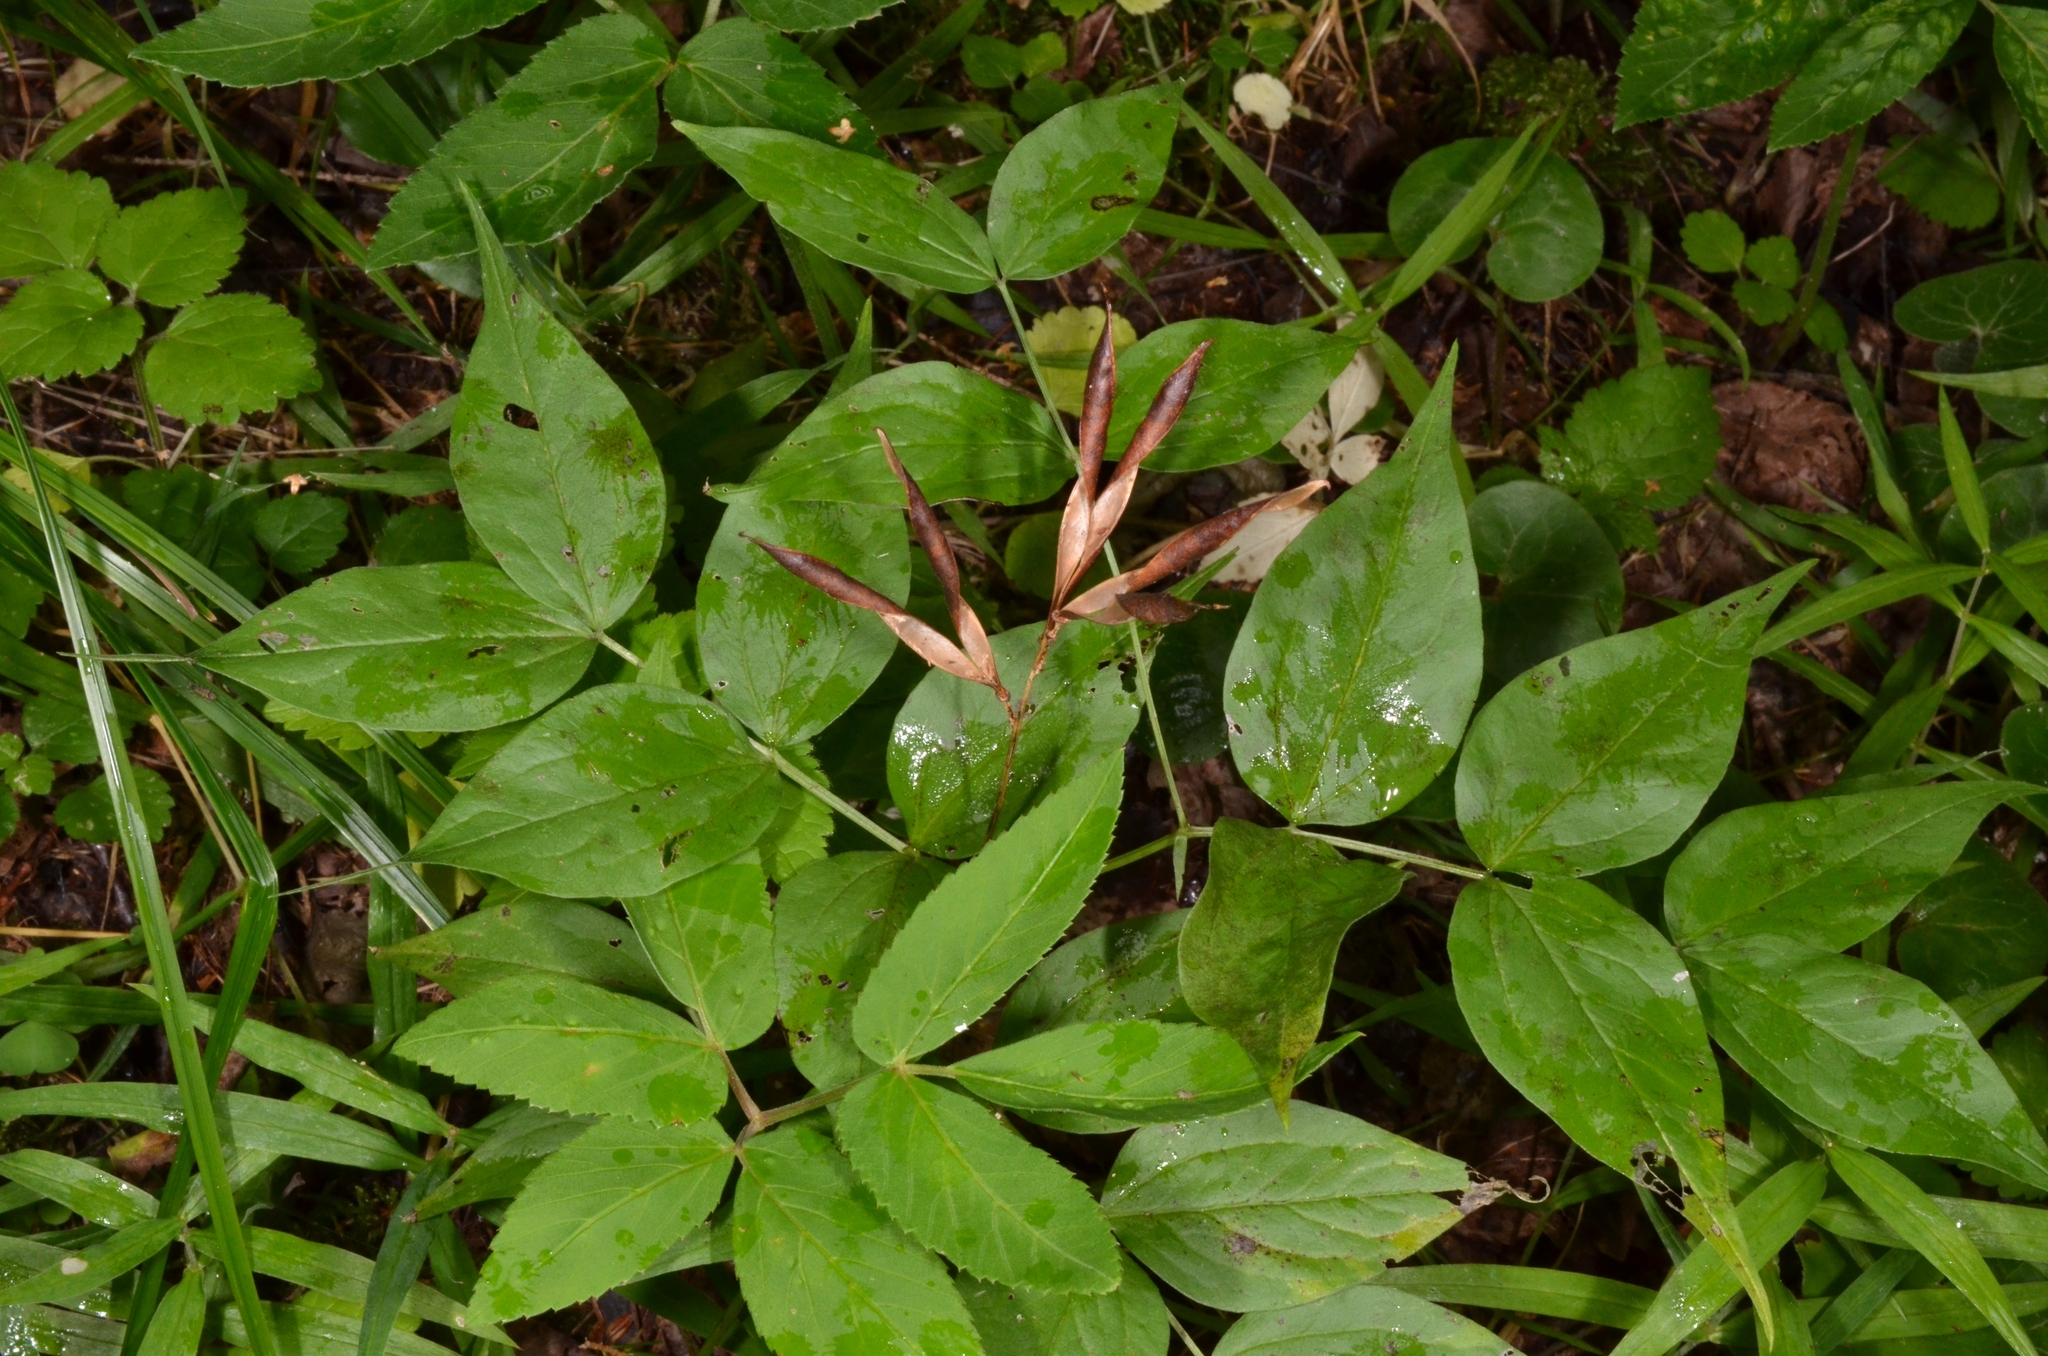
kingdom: Plantae
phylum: Tracheophyta
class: Magnoliopsida
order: Fabales
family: Fabaceae
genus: Lathyrus
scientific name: Lathyrus vernus
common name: Spring pea
